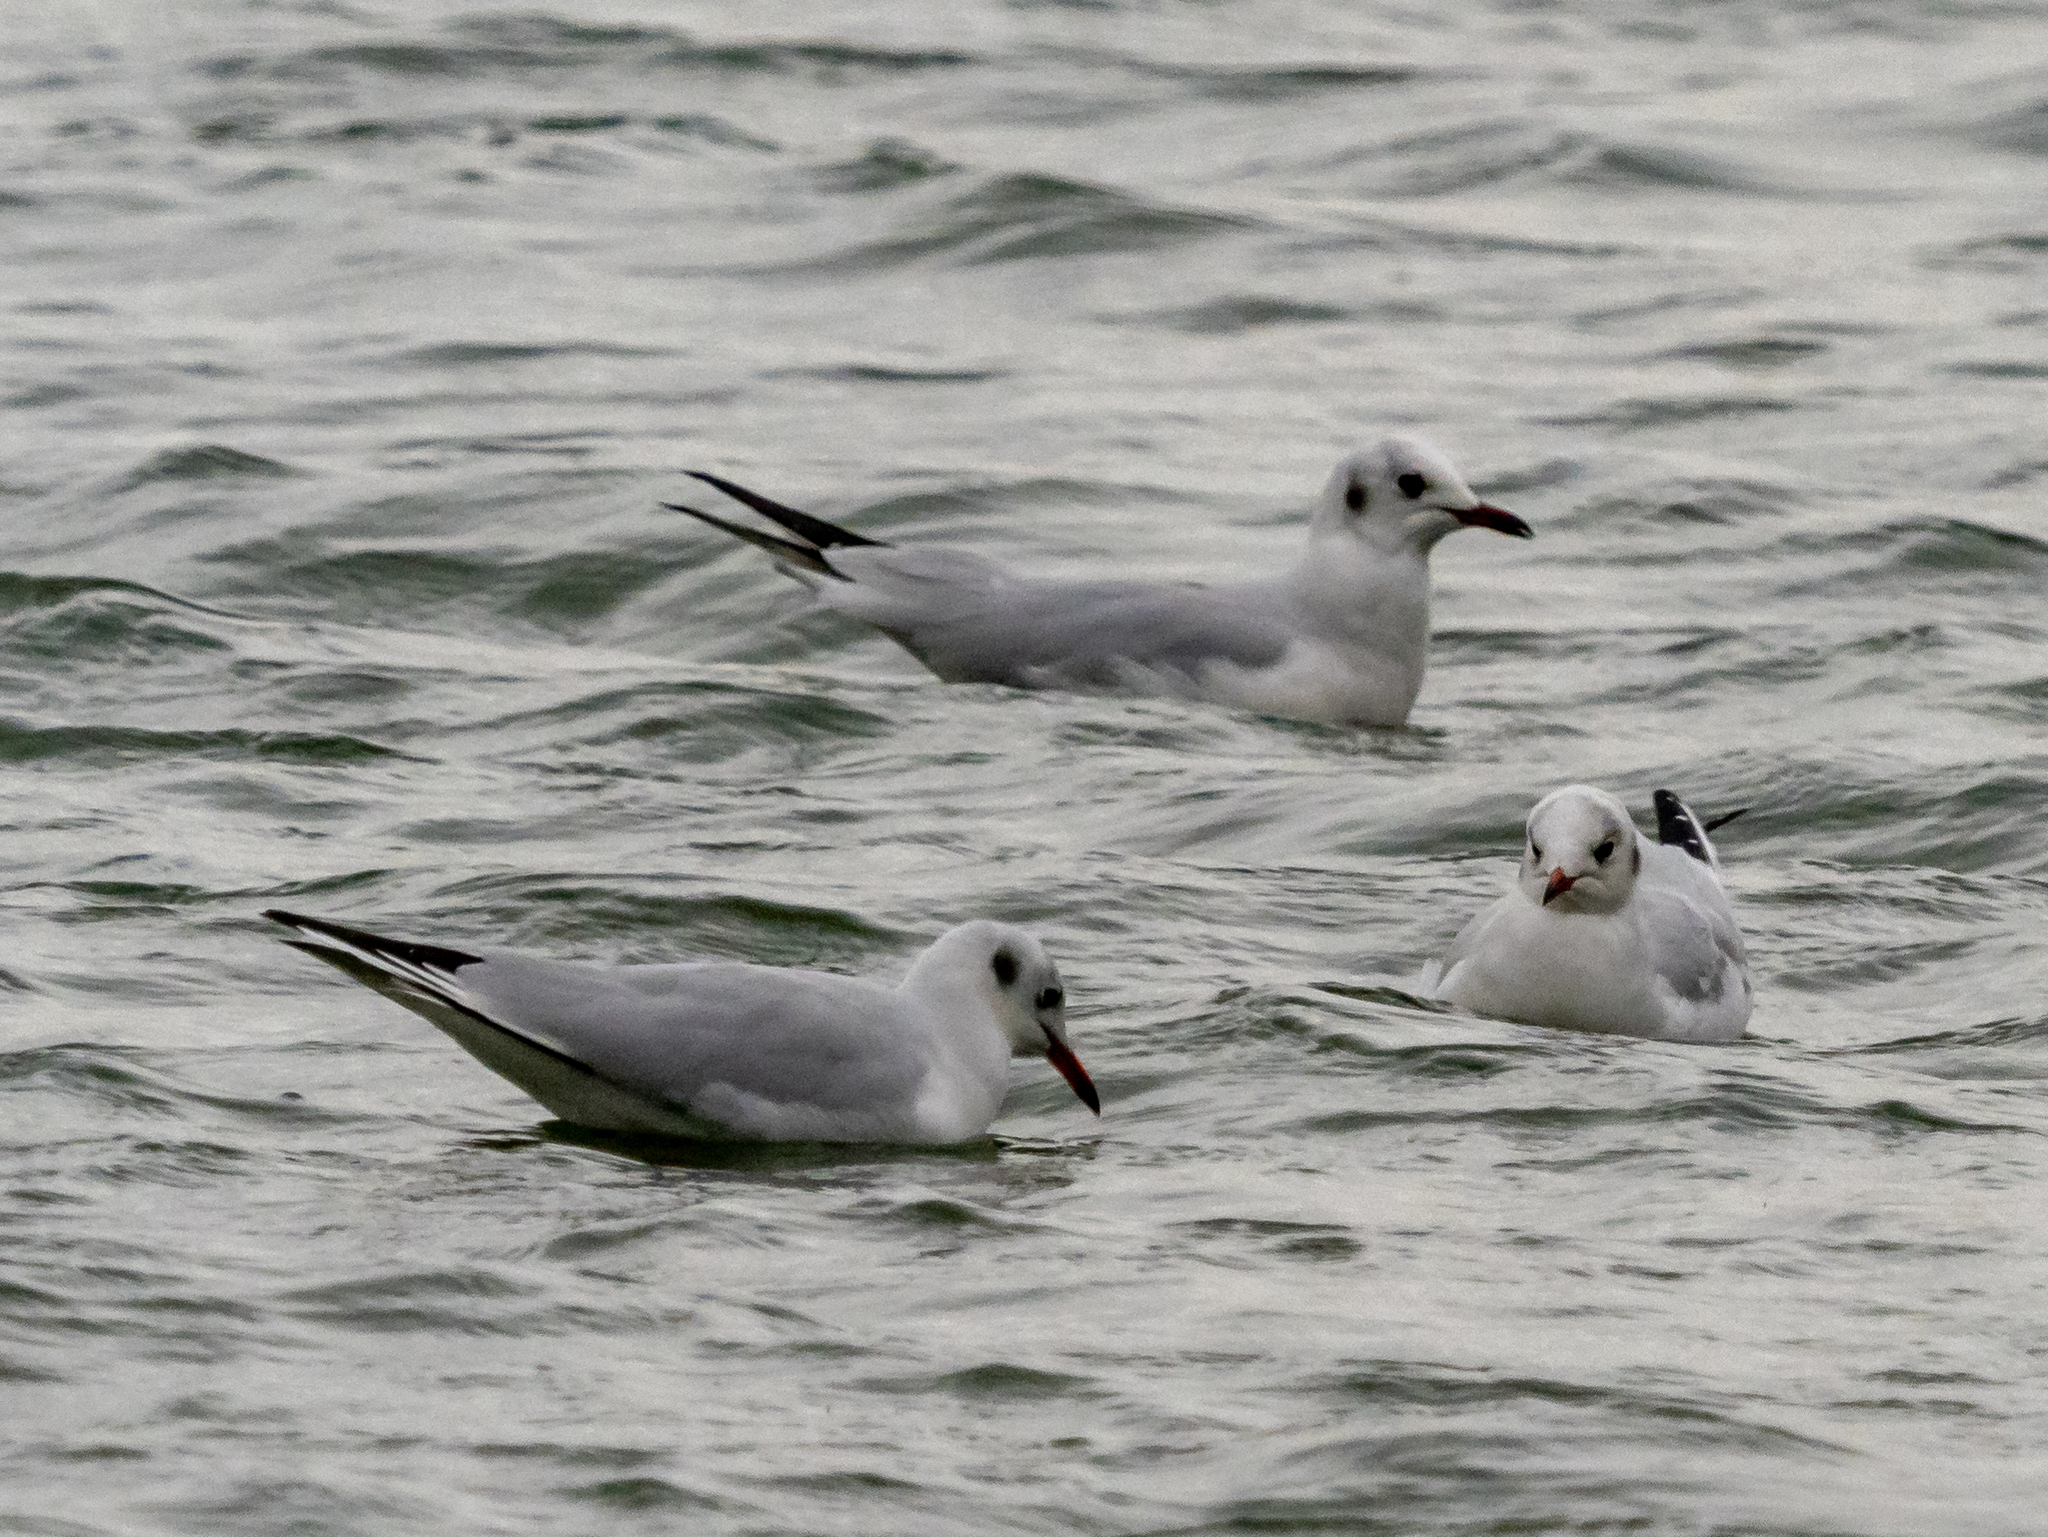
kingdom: Animalia
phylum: Chordata
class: Aves
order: Charadriiformes
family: Laridae
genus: Chroicocephalus
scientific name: Chroicocephalus ridibundus
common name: Black-headed gull
